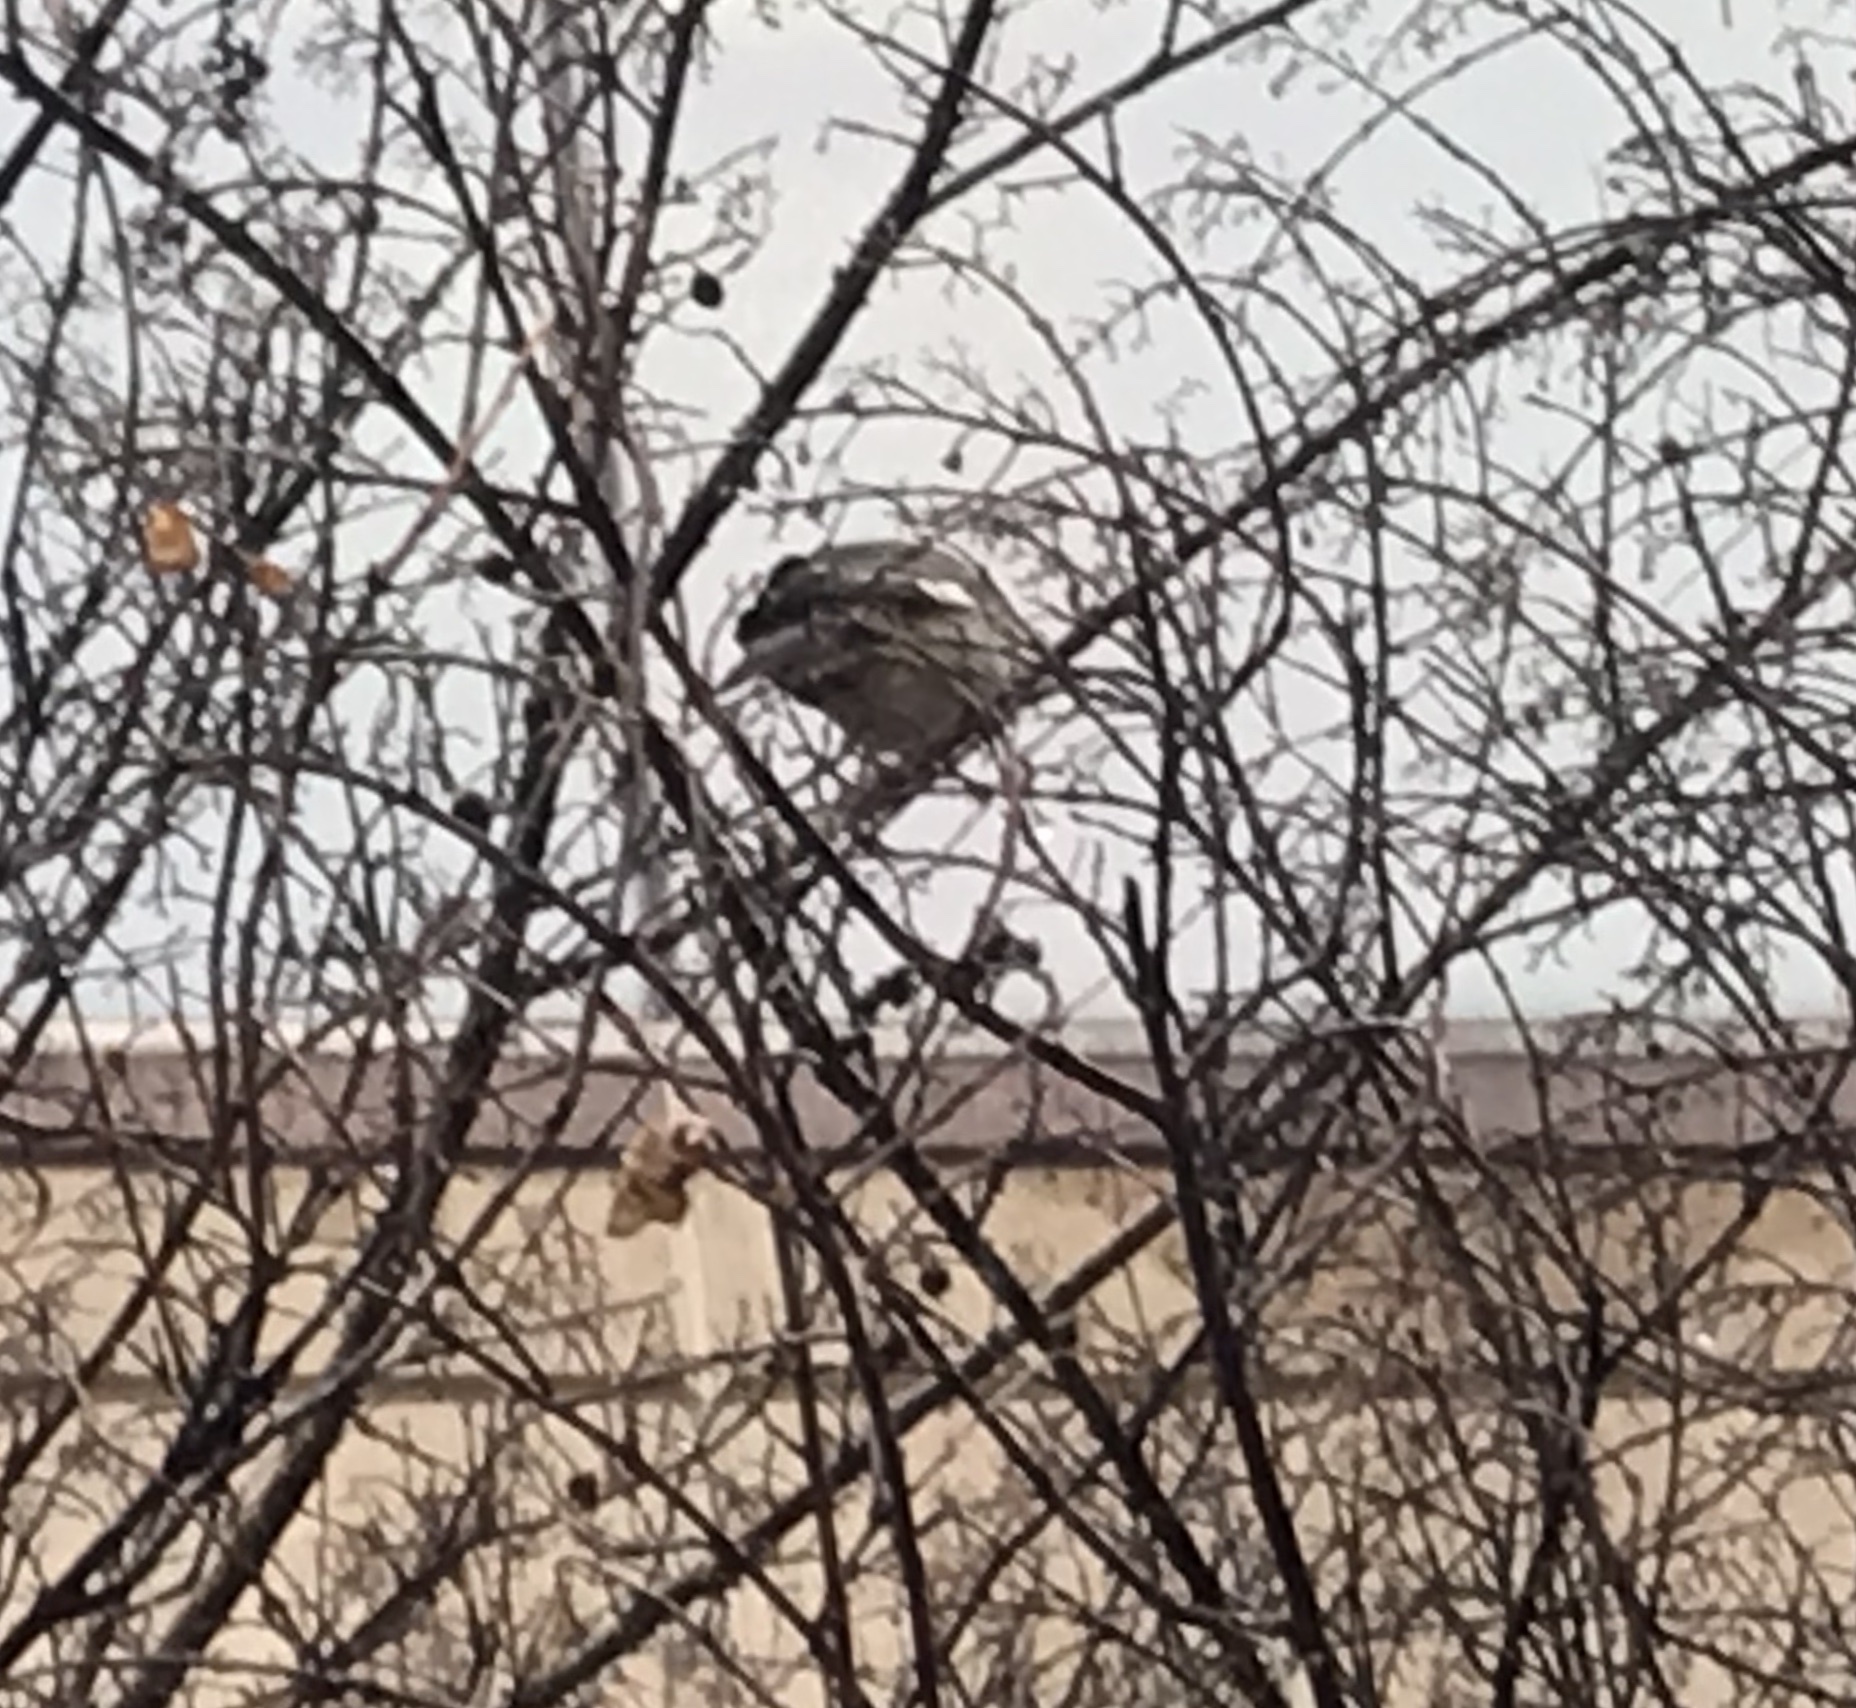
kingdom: Animalia
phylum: Chordata
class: Aves
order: Passeriformes
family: Mimidae
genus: Mimus
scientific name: Mimus polyglottos
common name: Northern mockingbird
